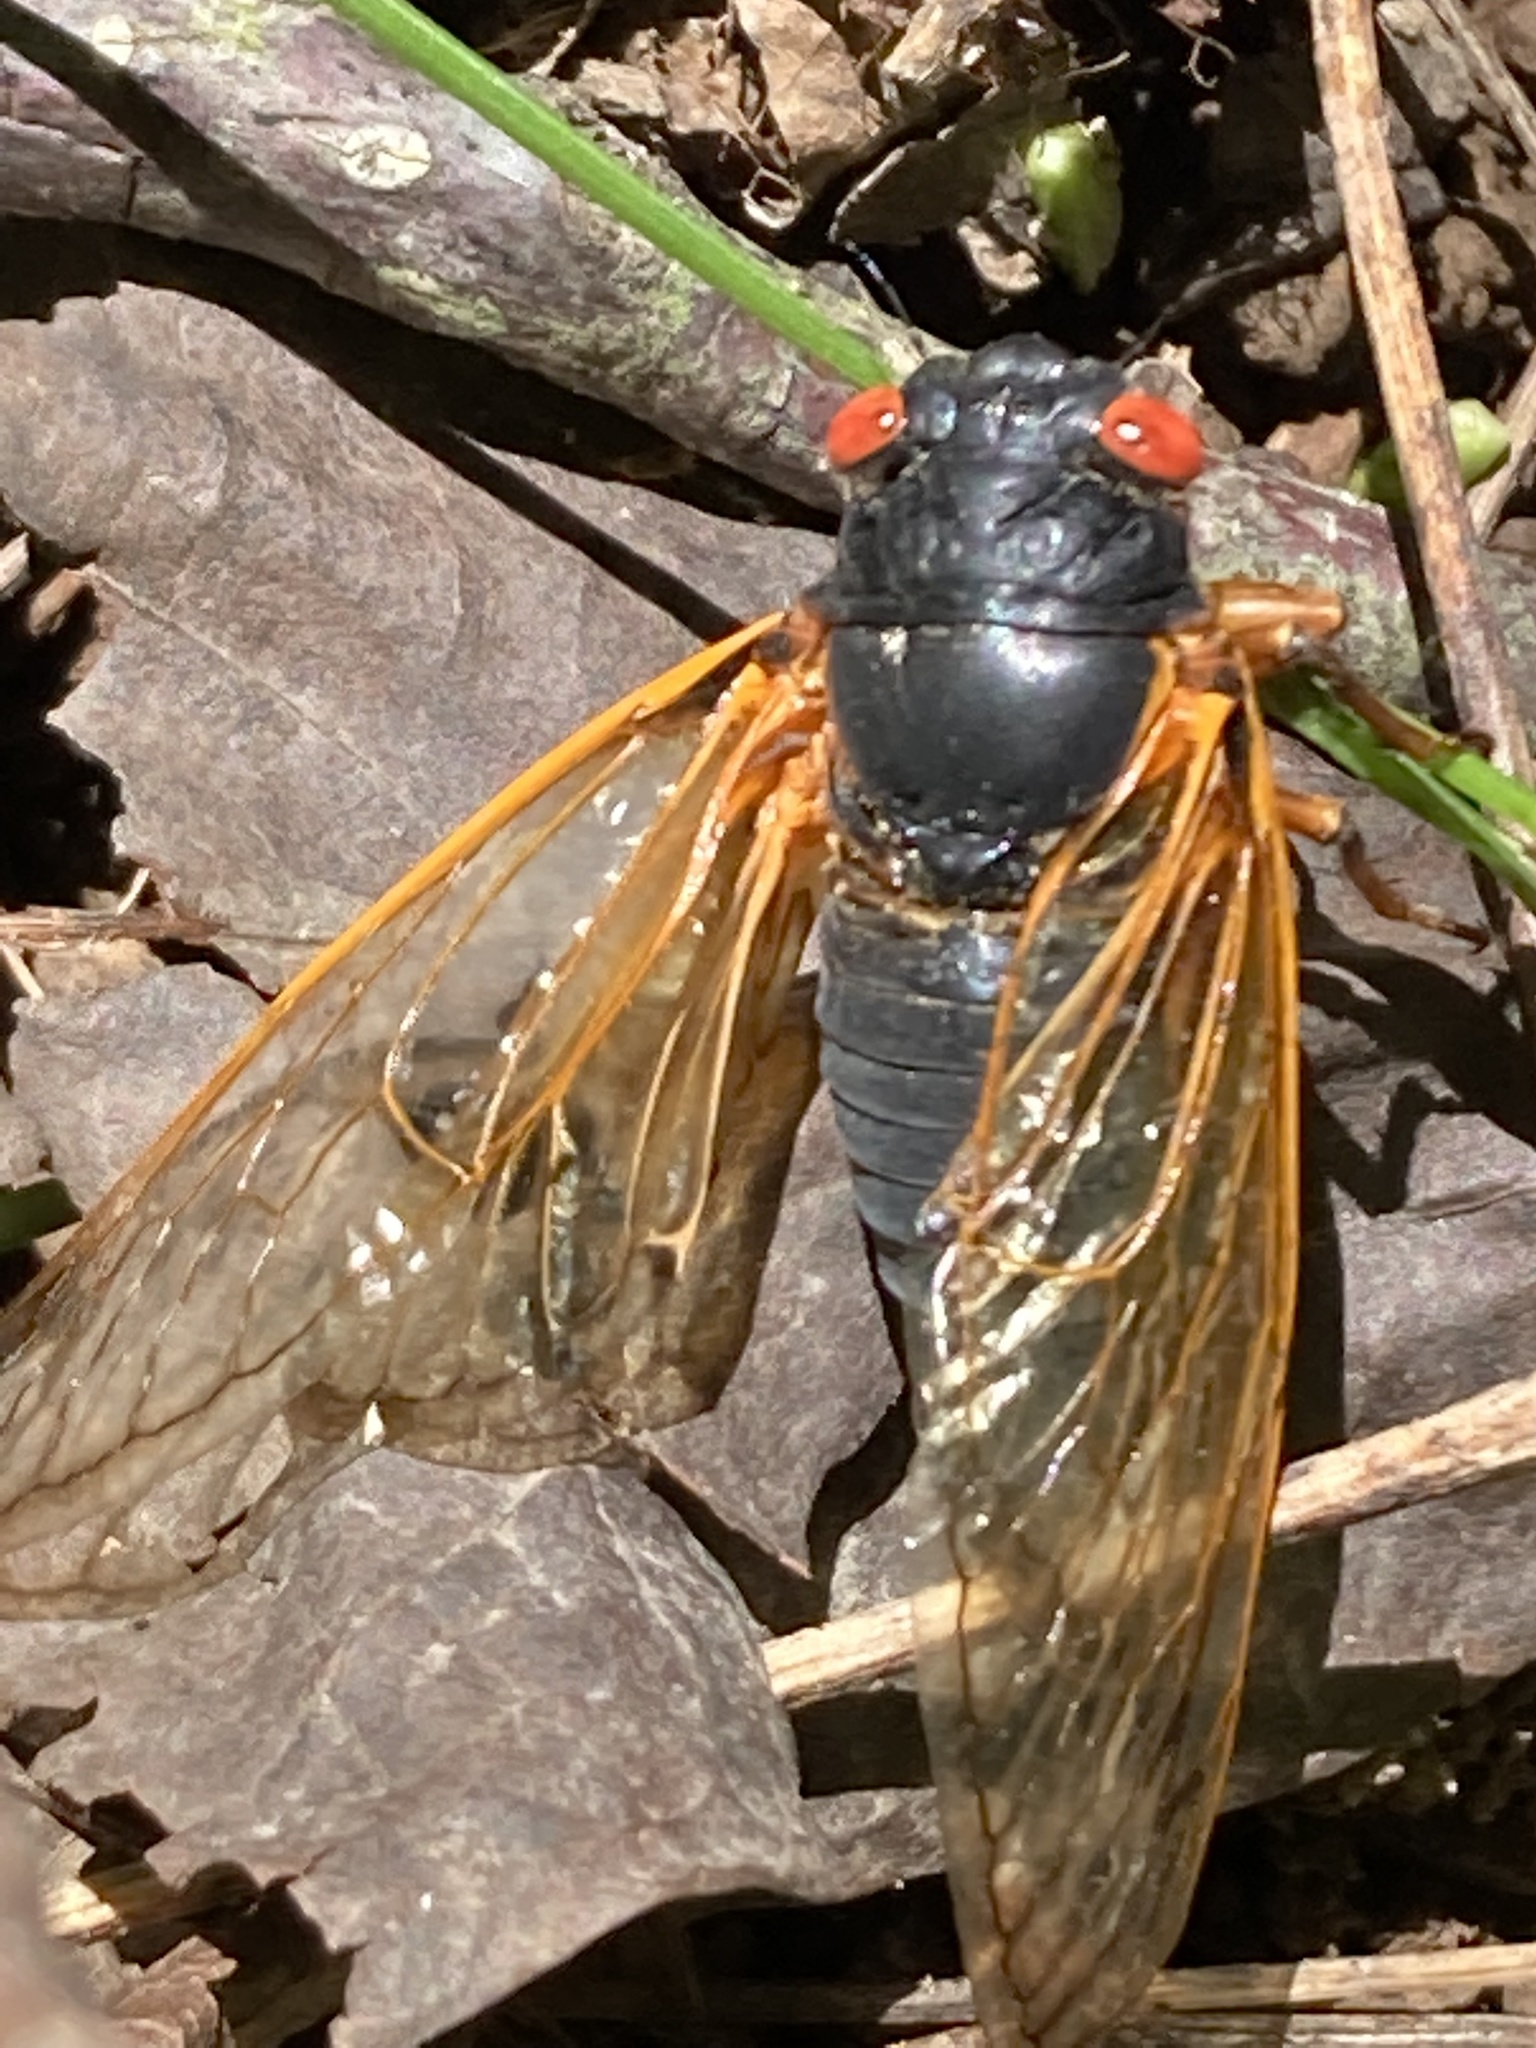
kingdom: Animalia
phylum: Arthropoda
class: Insecta
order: Hemiptera
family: Cicadidae
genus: Magicicada
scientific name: Magicicada
